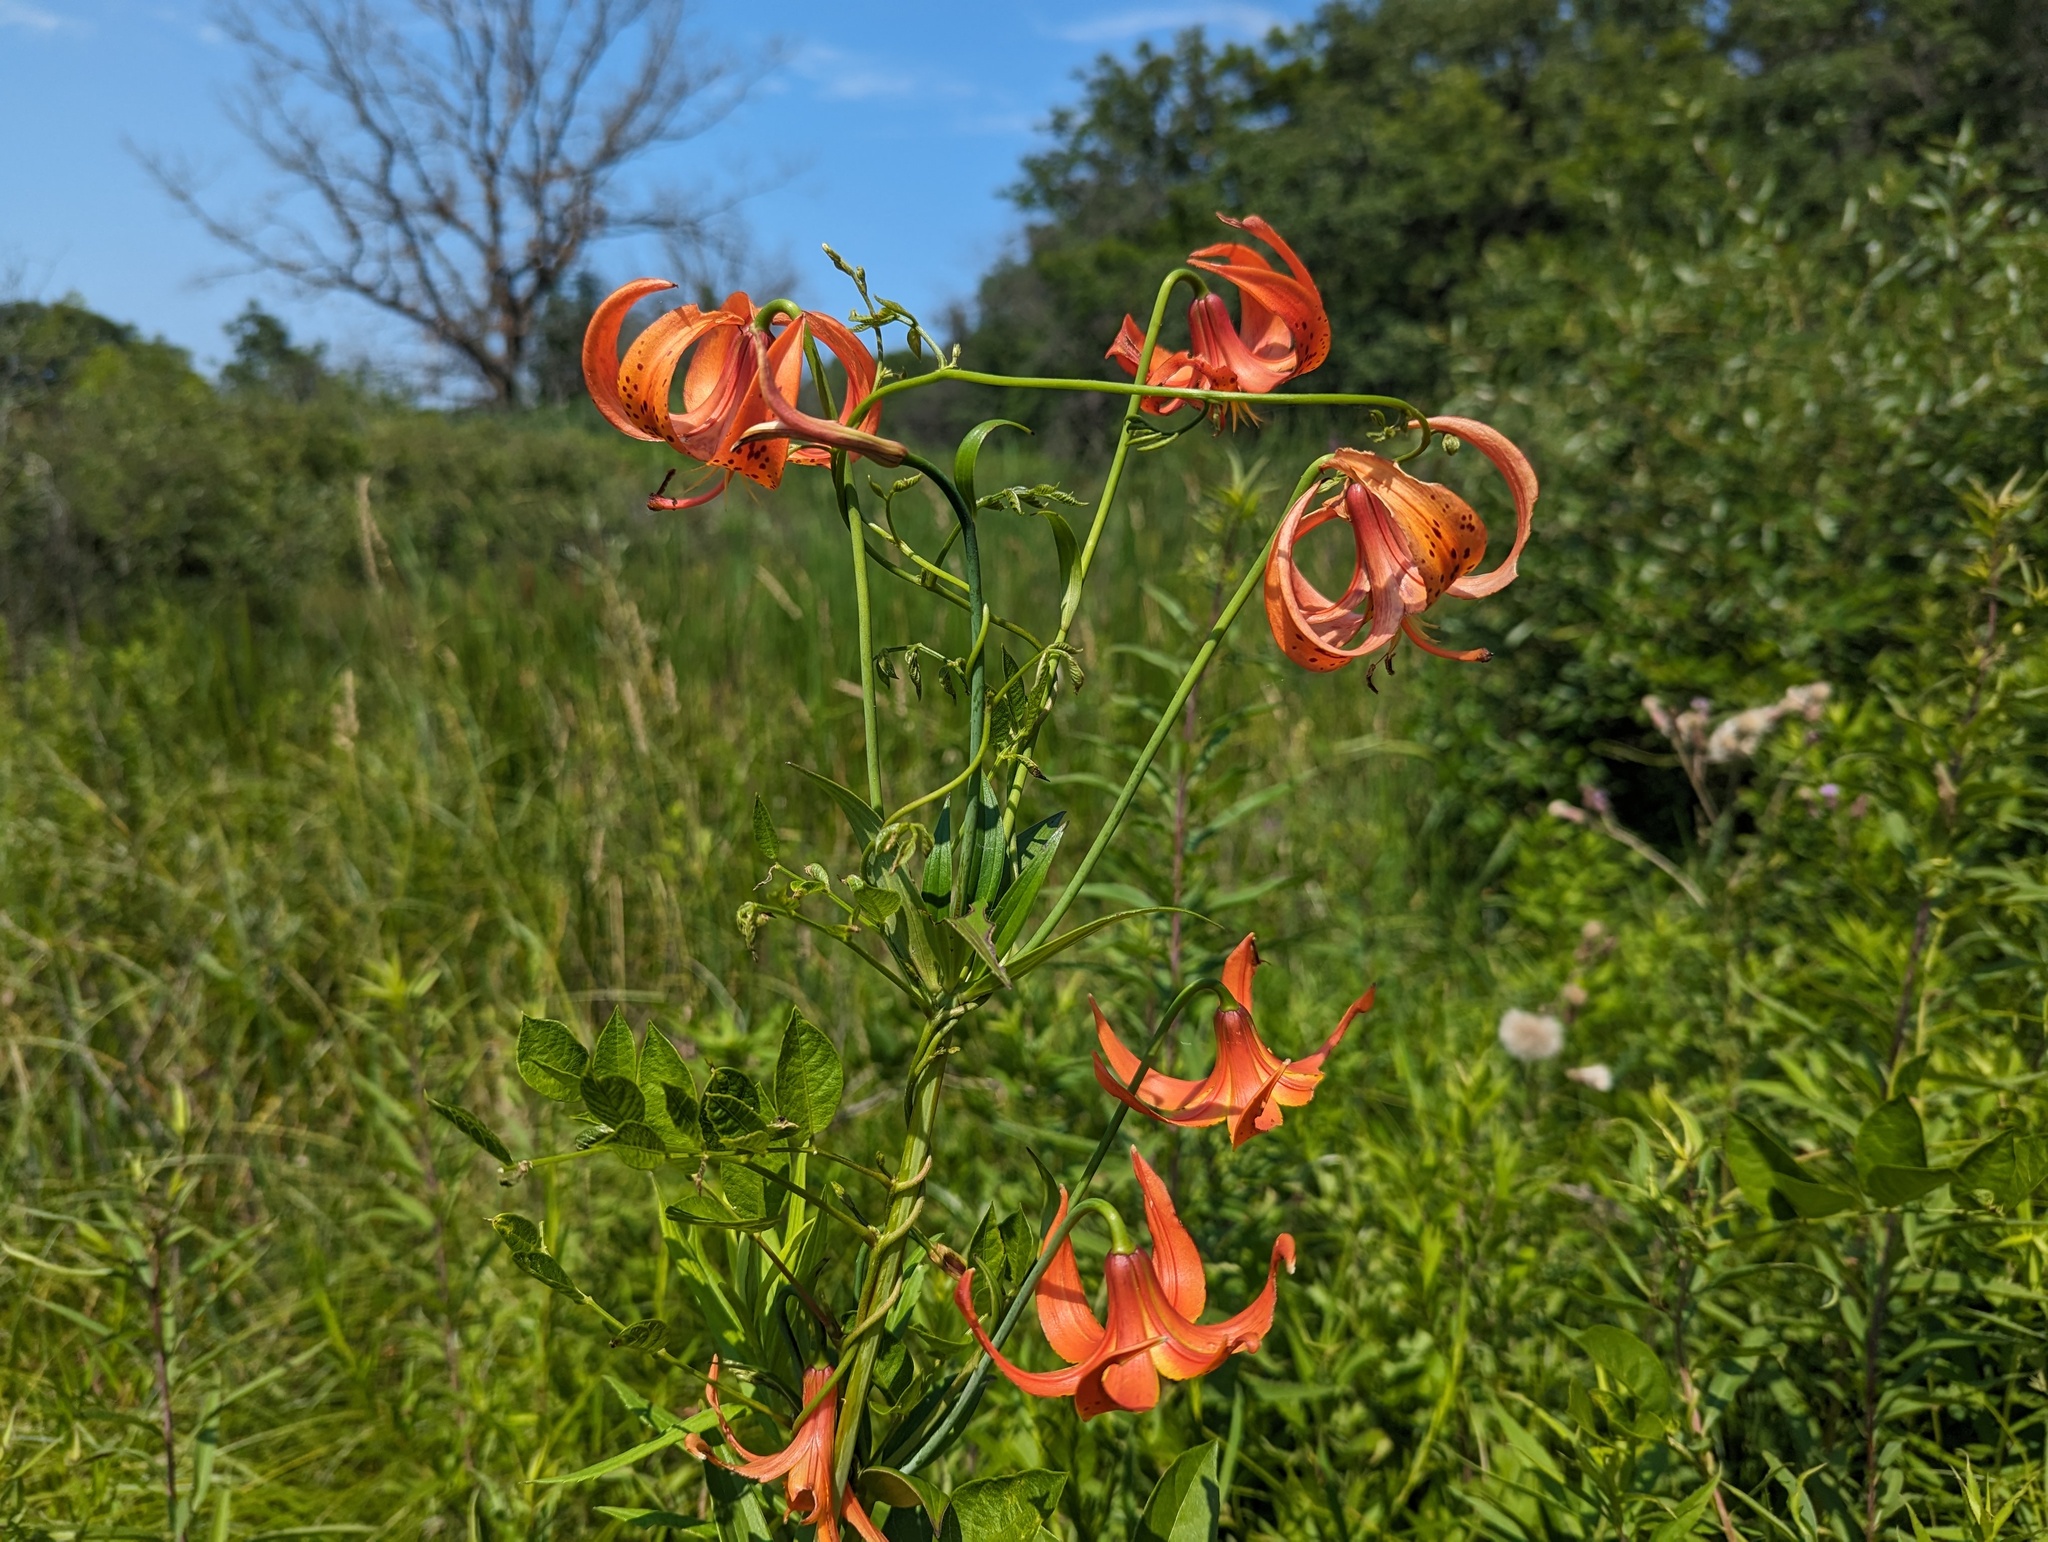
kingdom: Plantae
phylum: Tracheophyta
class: Liliopsida
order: Liliales
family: Liliaceae
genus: Lilium
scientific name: Lilium michiganense
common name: Michigan lily
